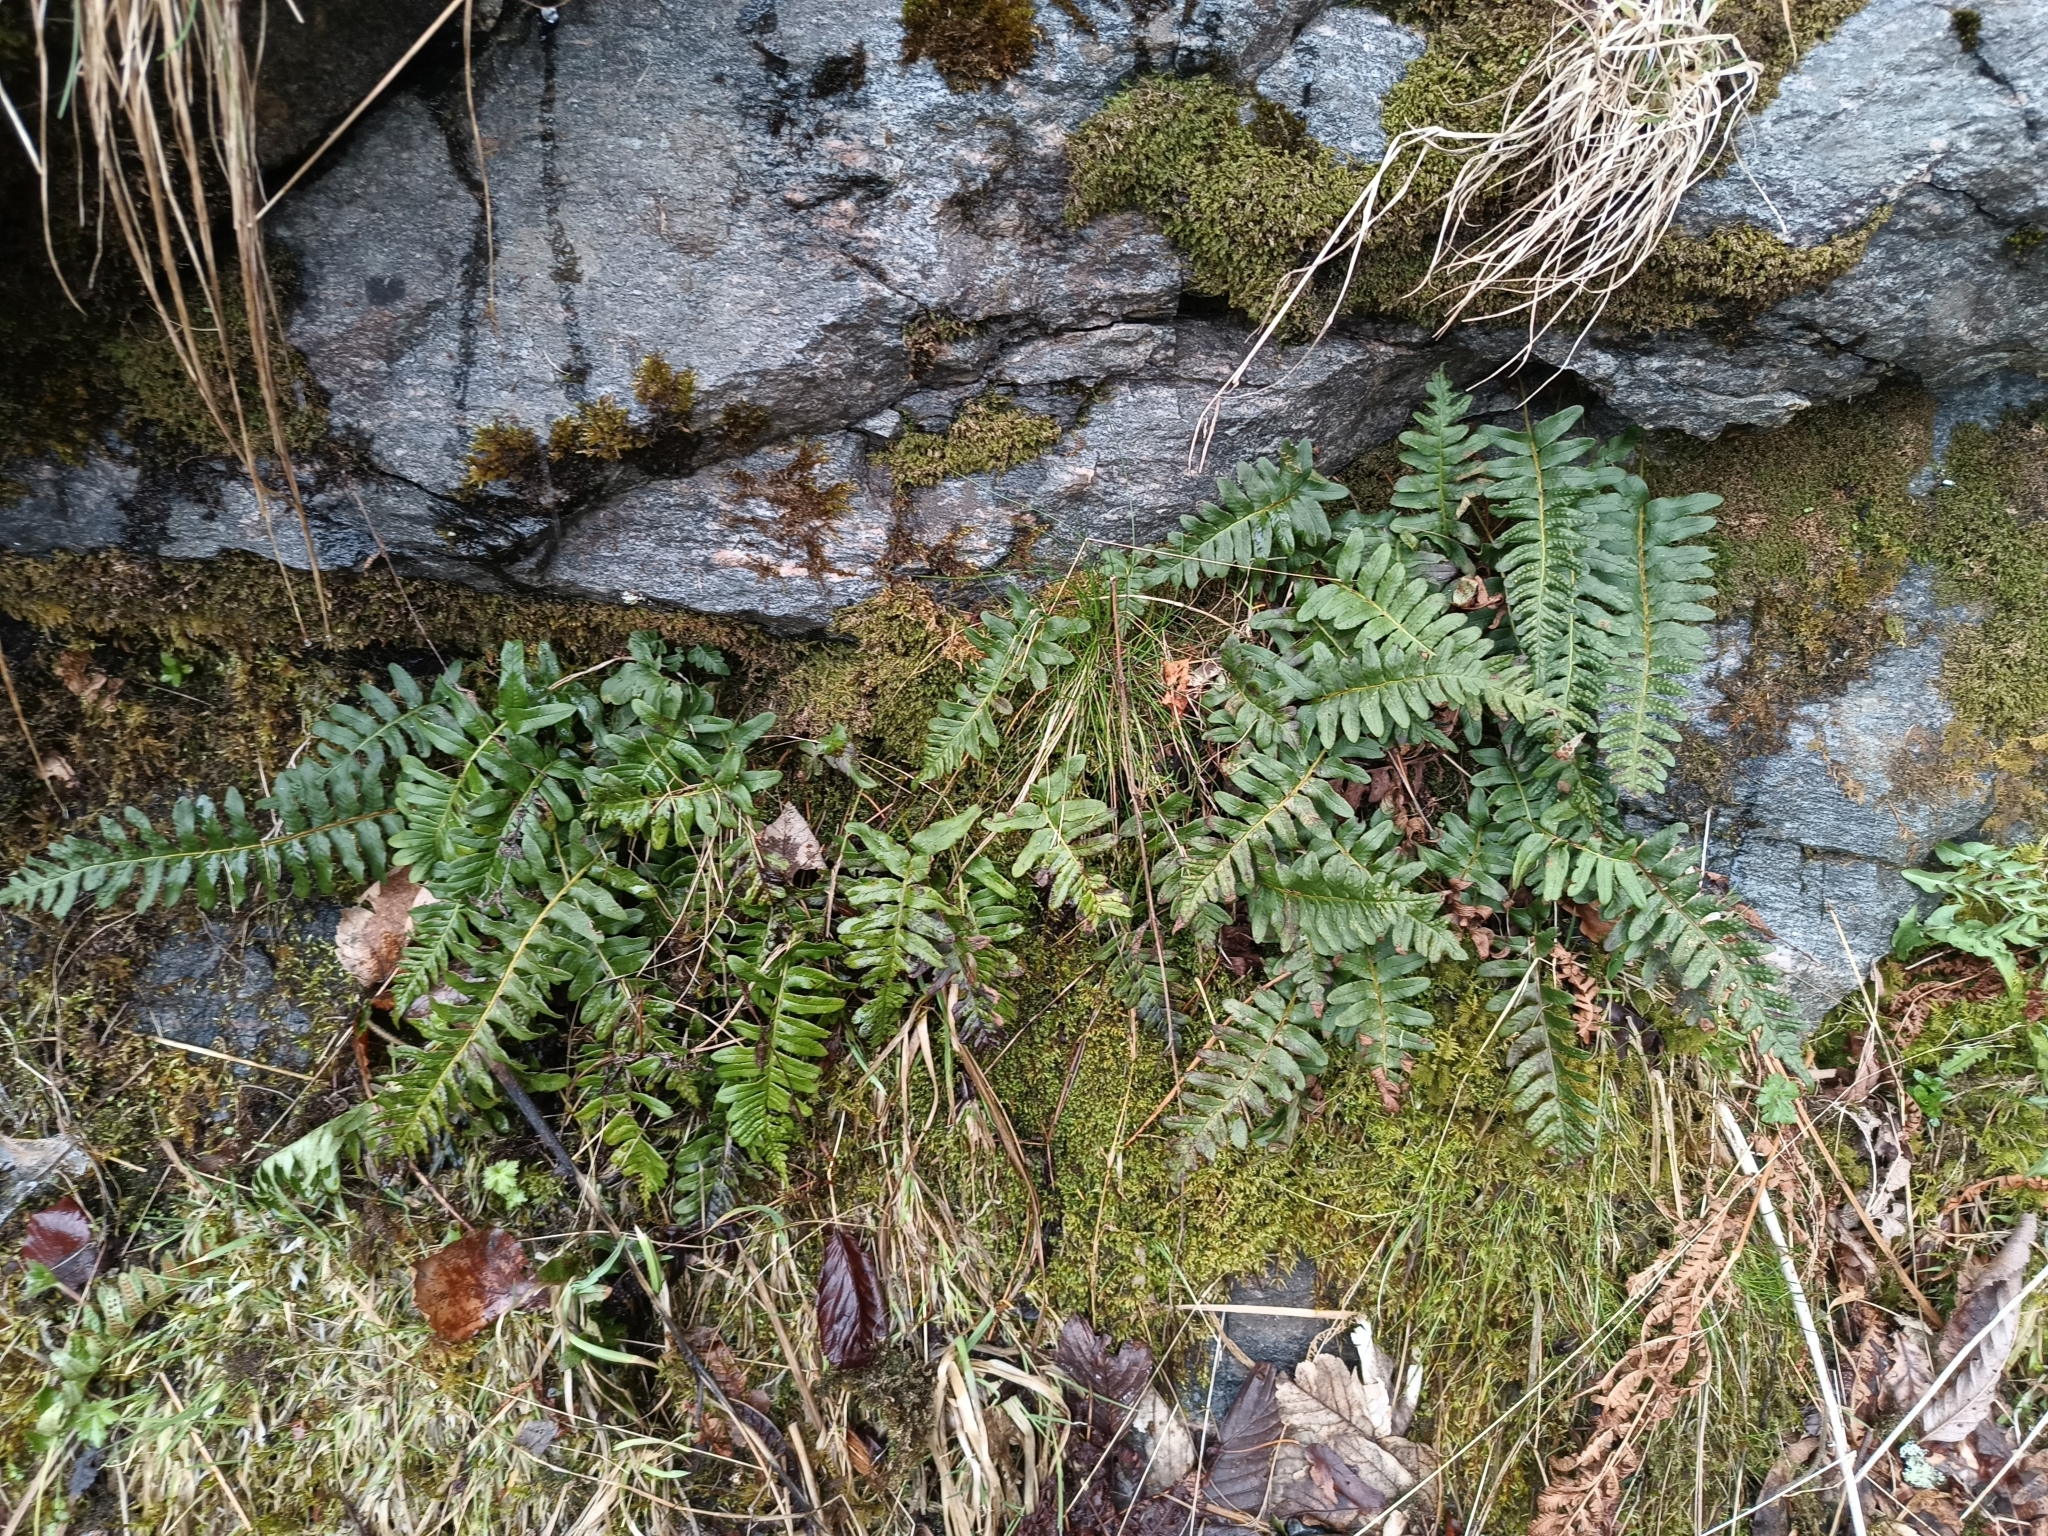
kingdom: Plantae
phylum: Tracheophyta
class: Polypodiopsida
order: Polypodiales
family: Polypodiaceae
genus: Polypodium
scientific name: Polypodium vulgare
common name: Common polypody
